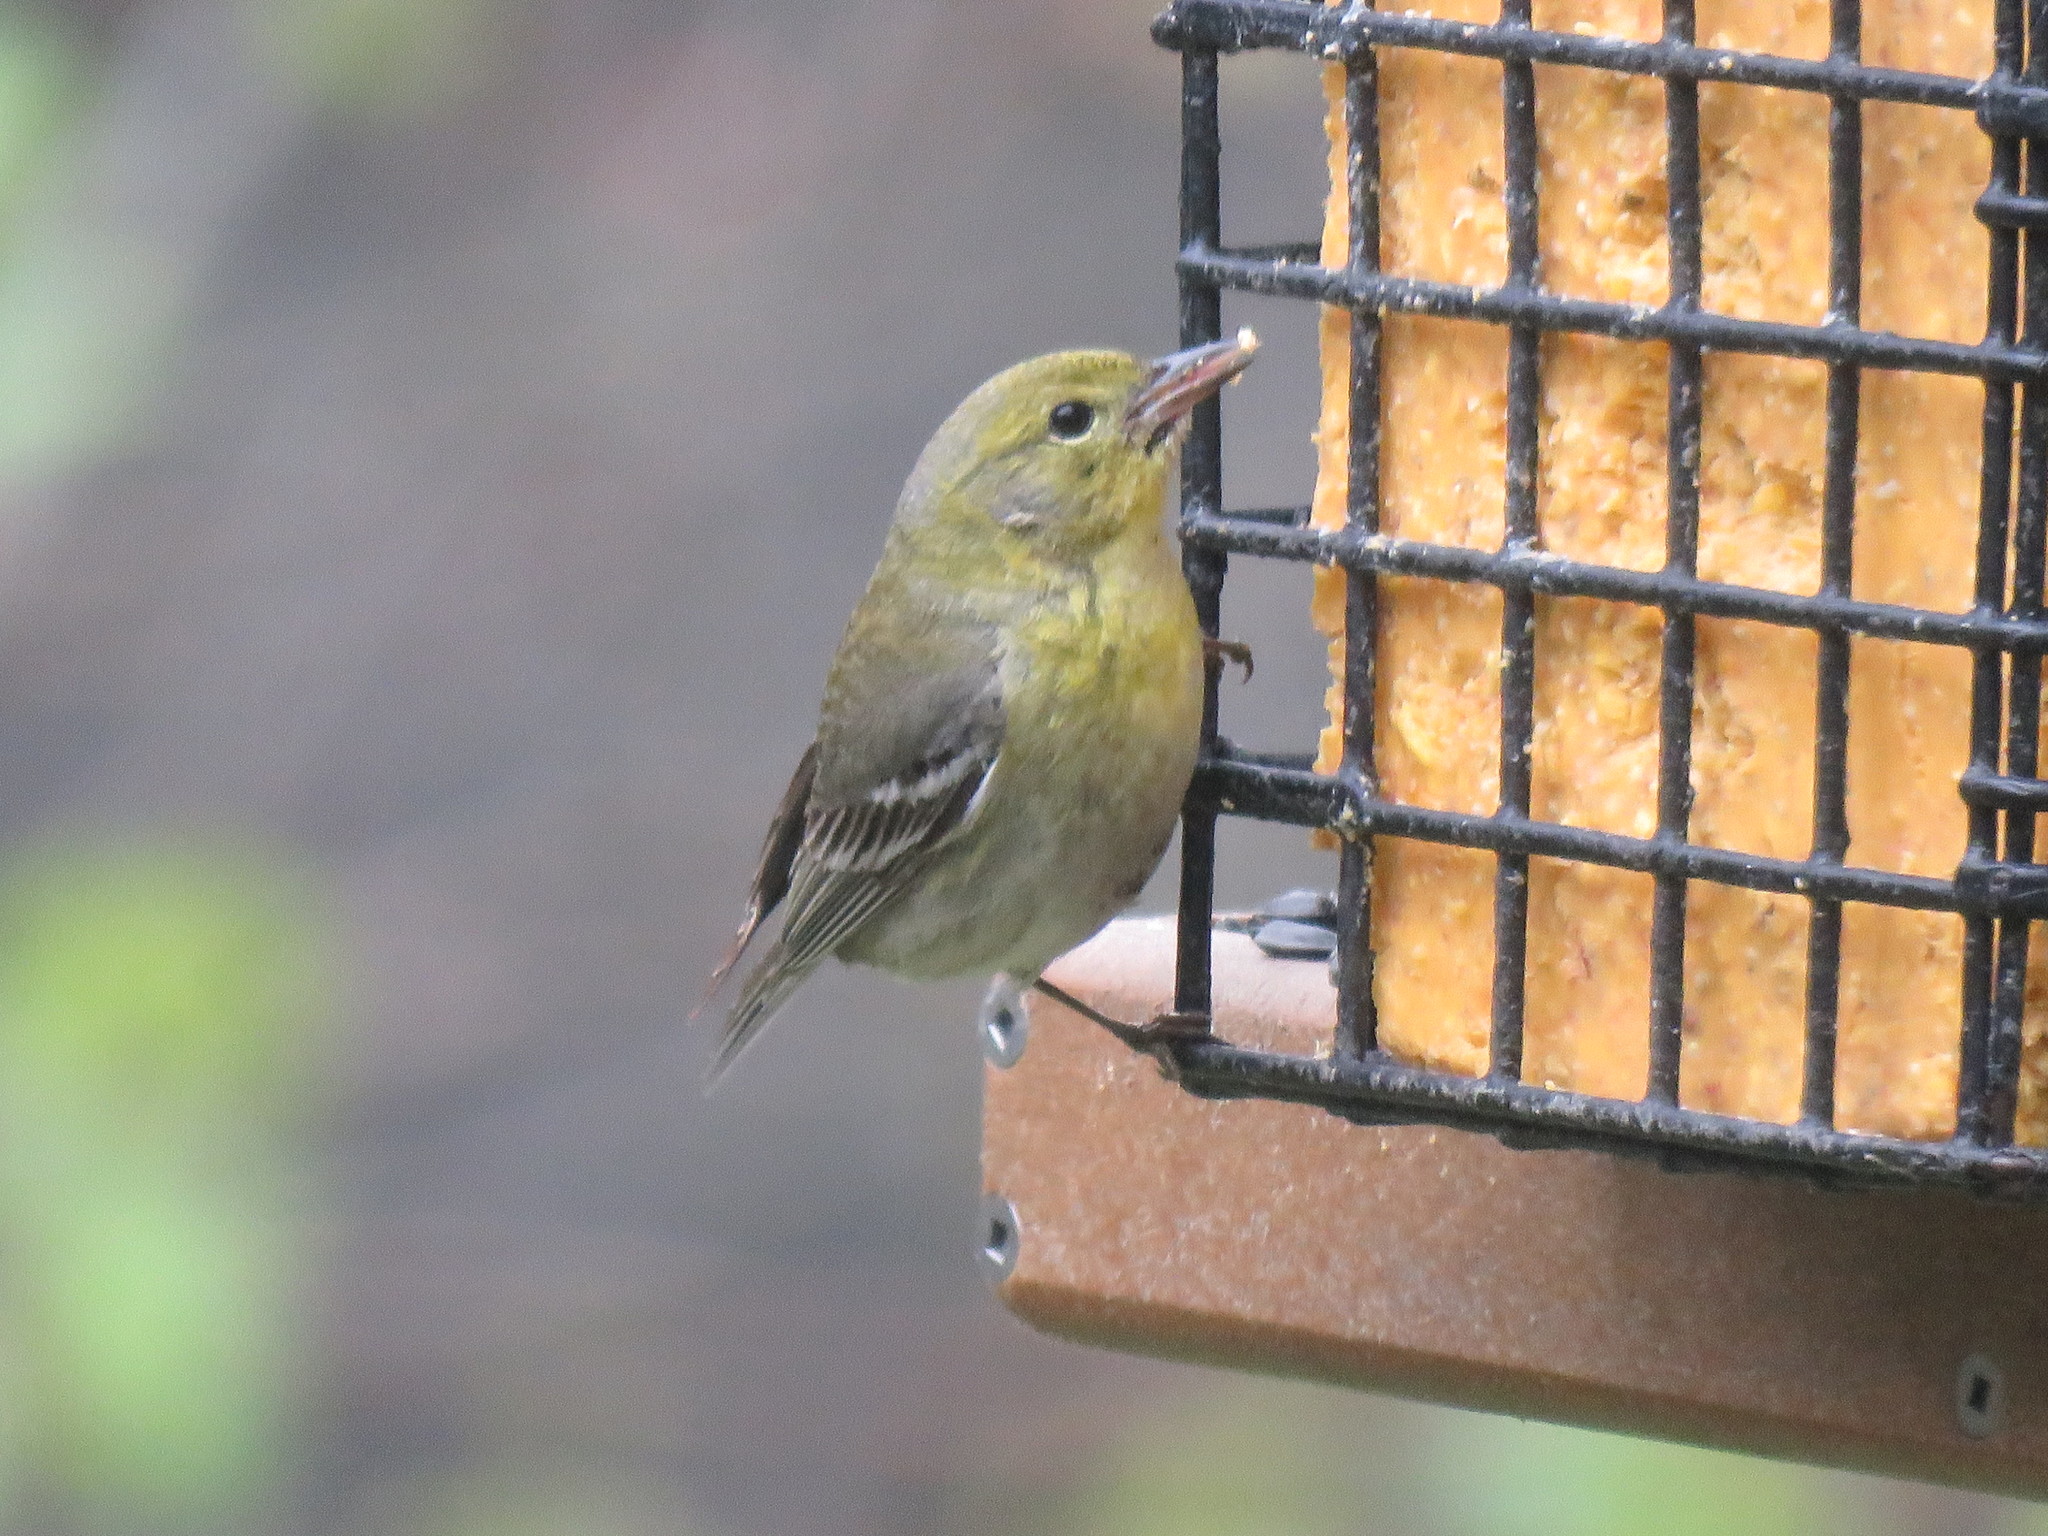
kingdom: Animalia
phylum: Chordata
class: Aves
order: Passeriformes
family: Parulidae
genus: Setophaga
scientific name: Setophaga pinus
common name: Pine warbler
